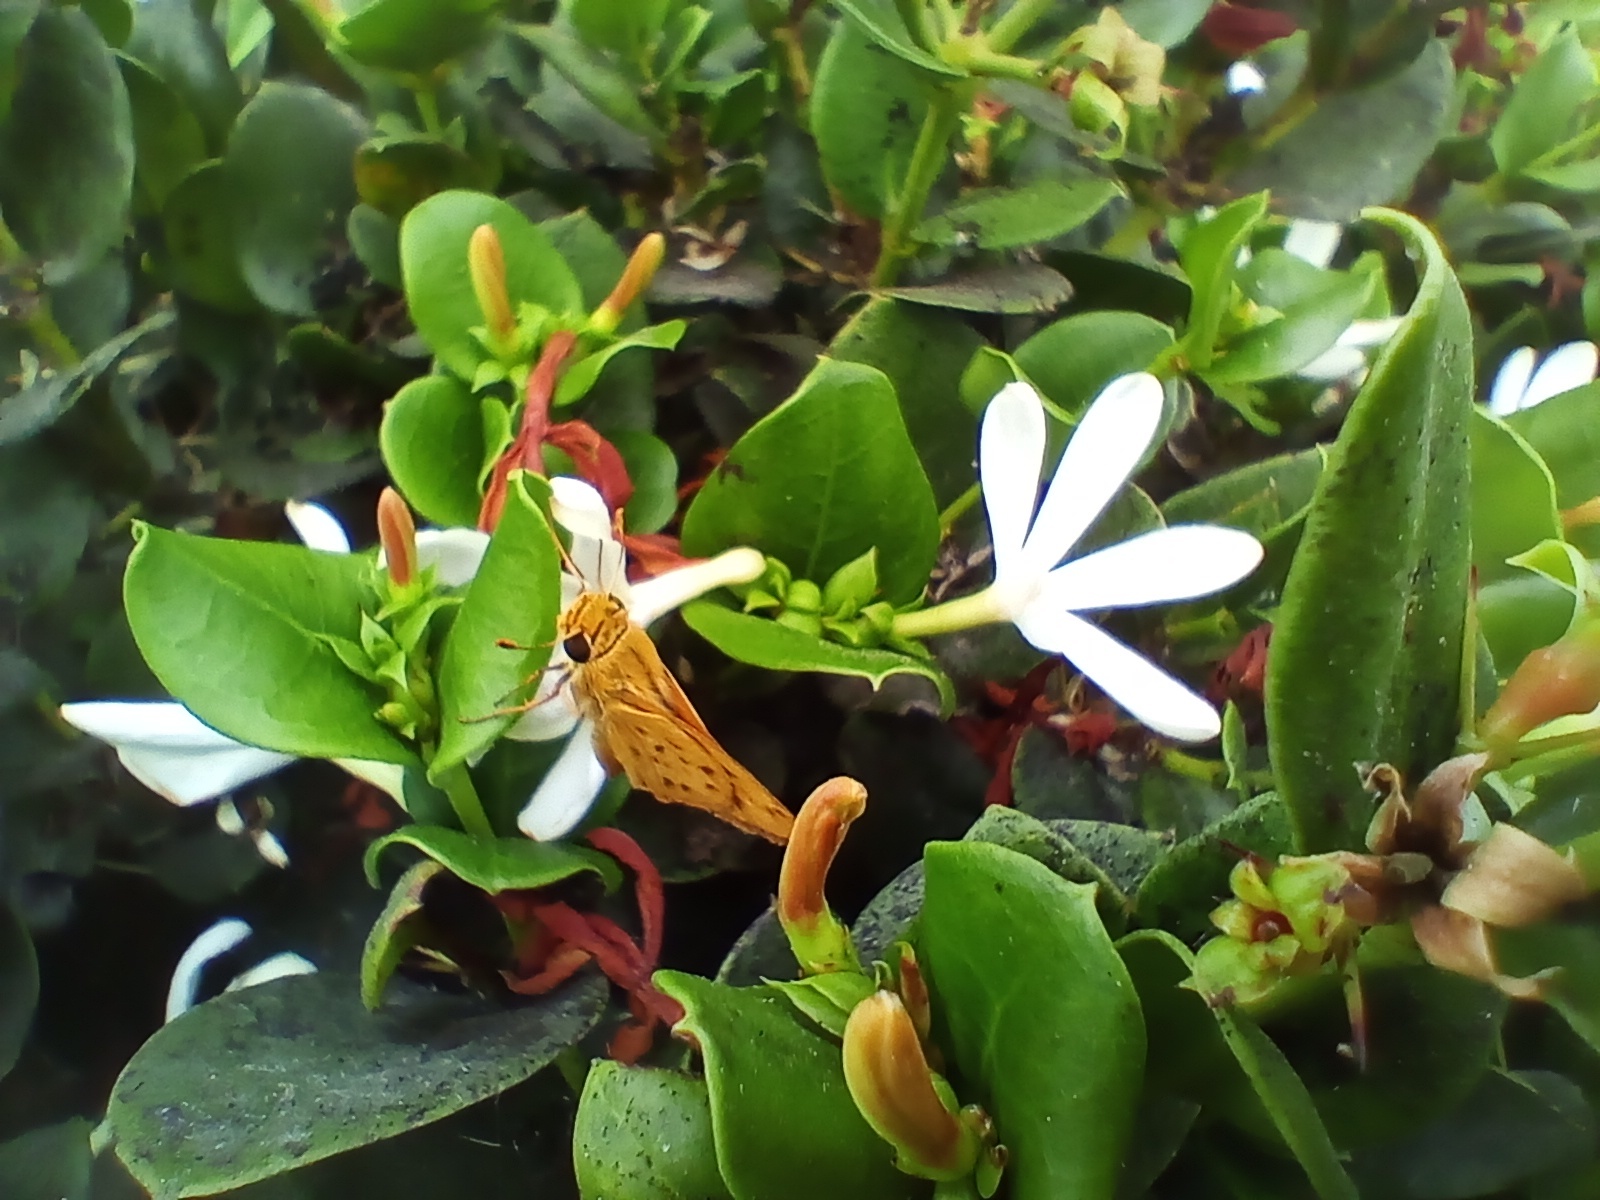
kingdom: Animalia
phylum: Arthropoda
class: Insecta
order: Lepidoptera
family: Hesperiidae
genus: Hylephila
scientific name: Hylephila phyleus
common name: Fiery skipper
